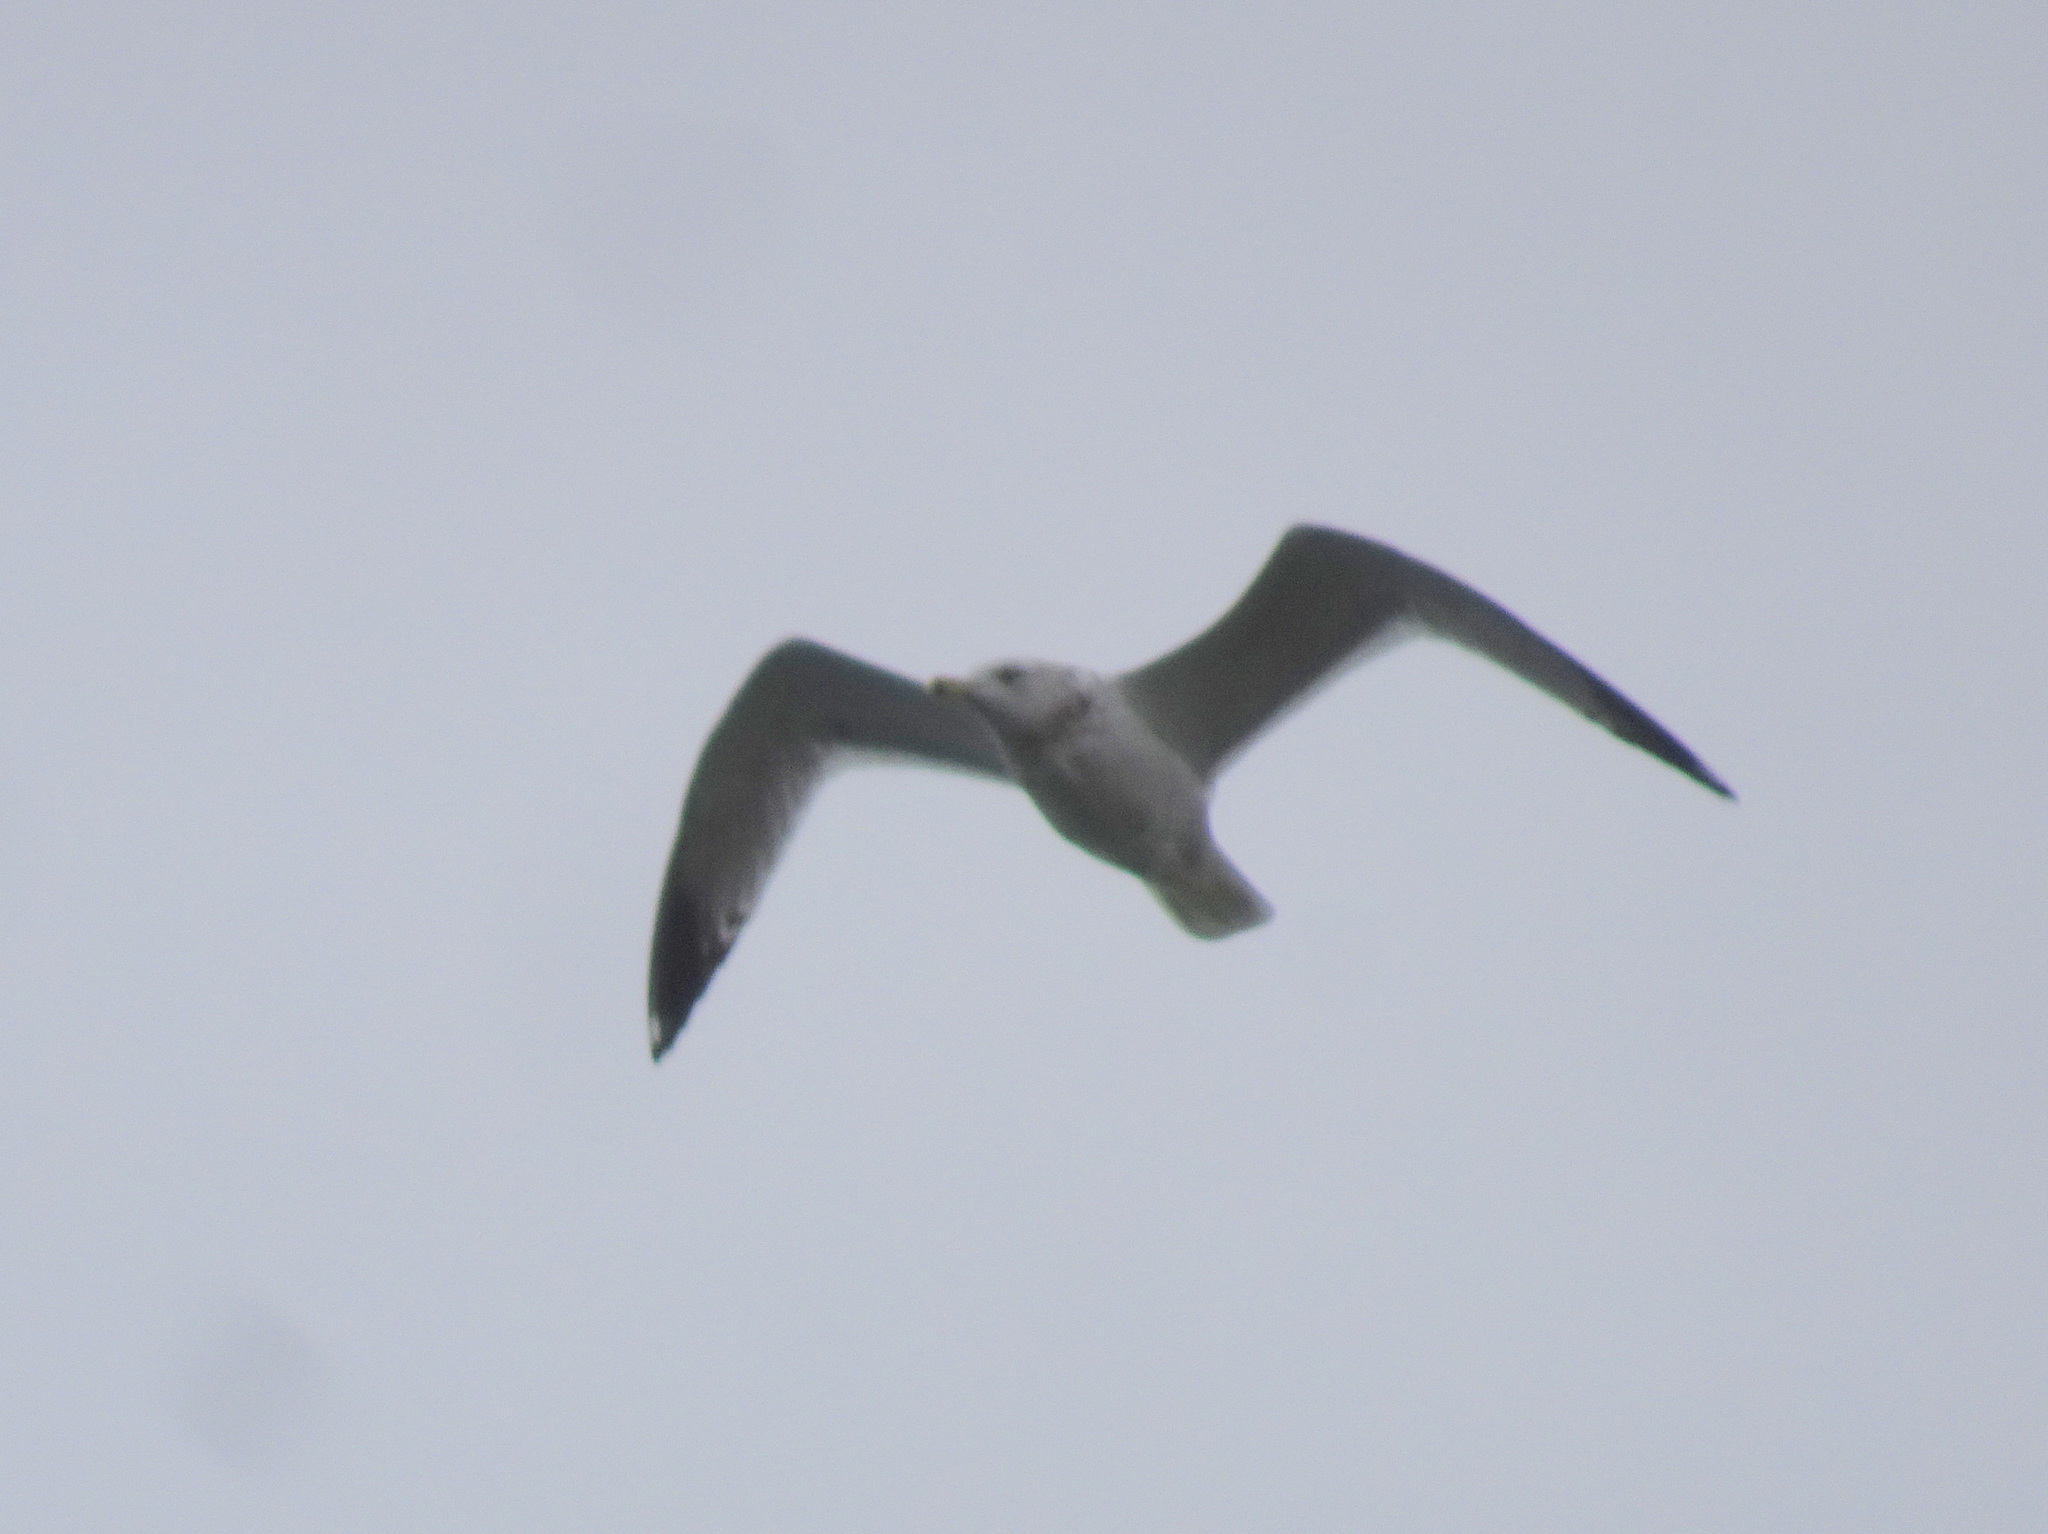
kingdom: Animalia
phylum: Chordata
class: Aves
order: Charadriiformes
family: Laridae
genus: Larus
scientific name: Larus delawarensis
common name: Ring-billed gull
